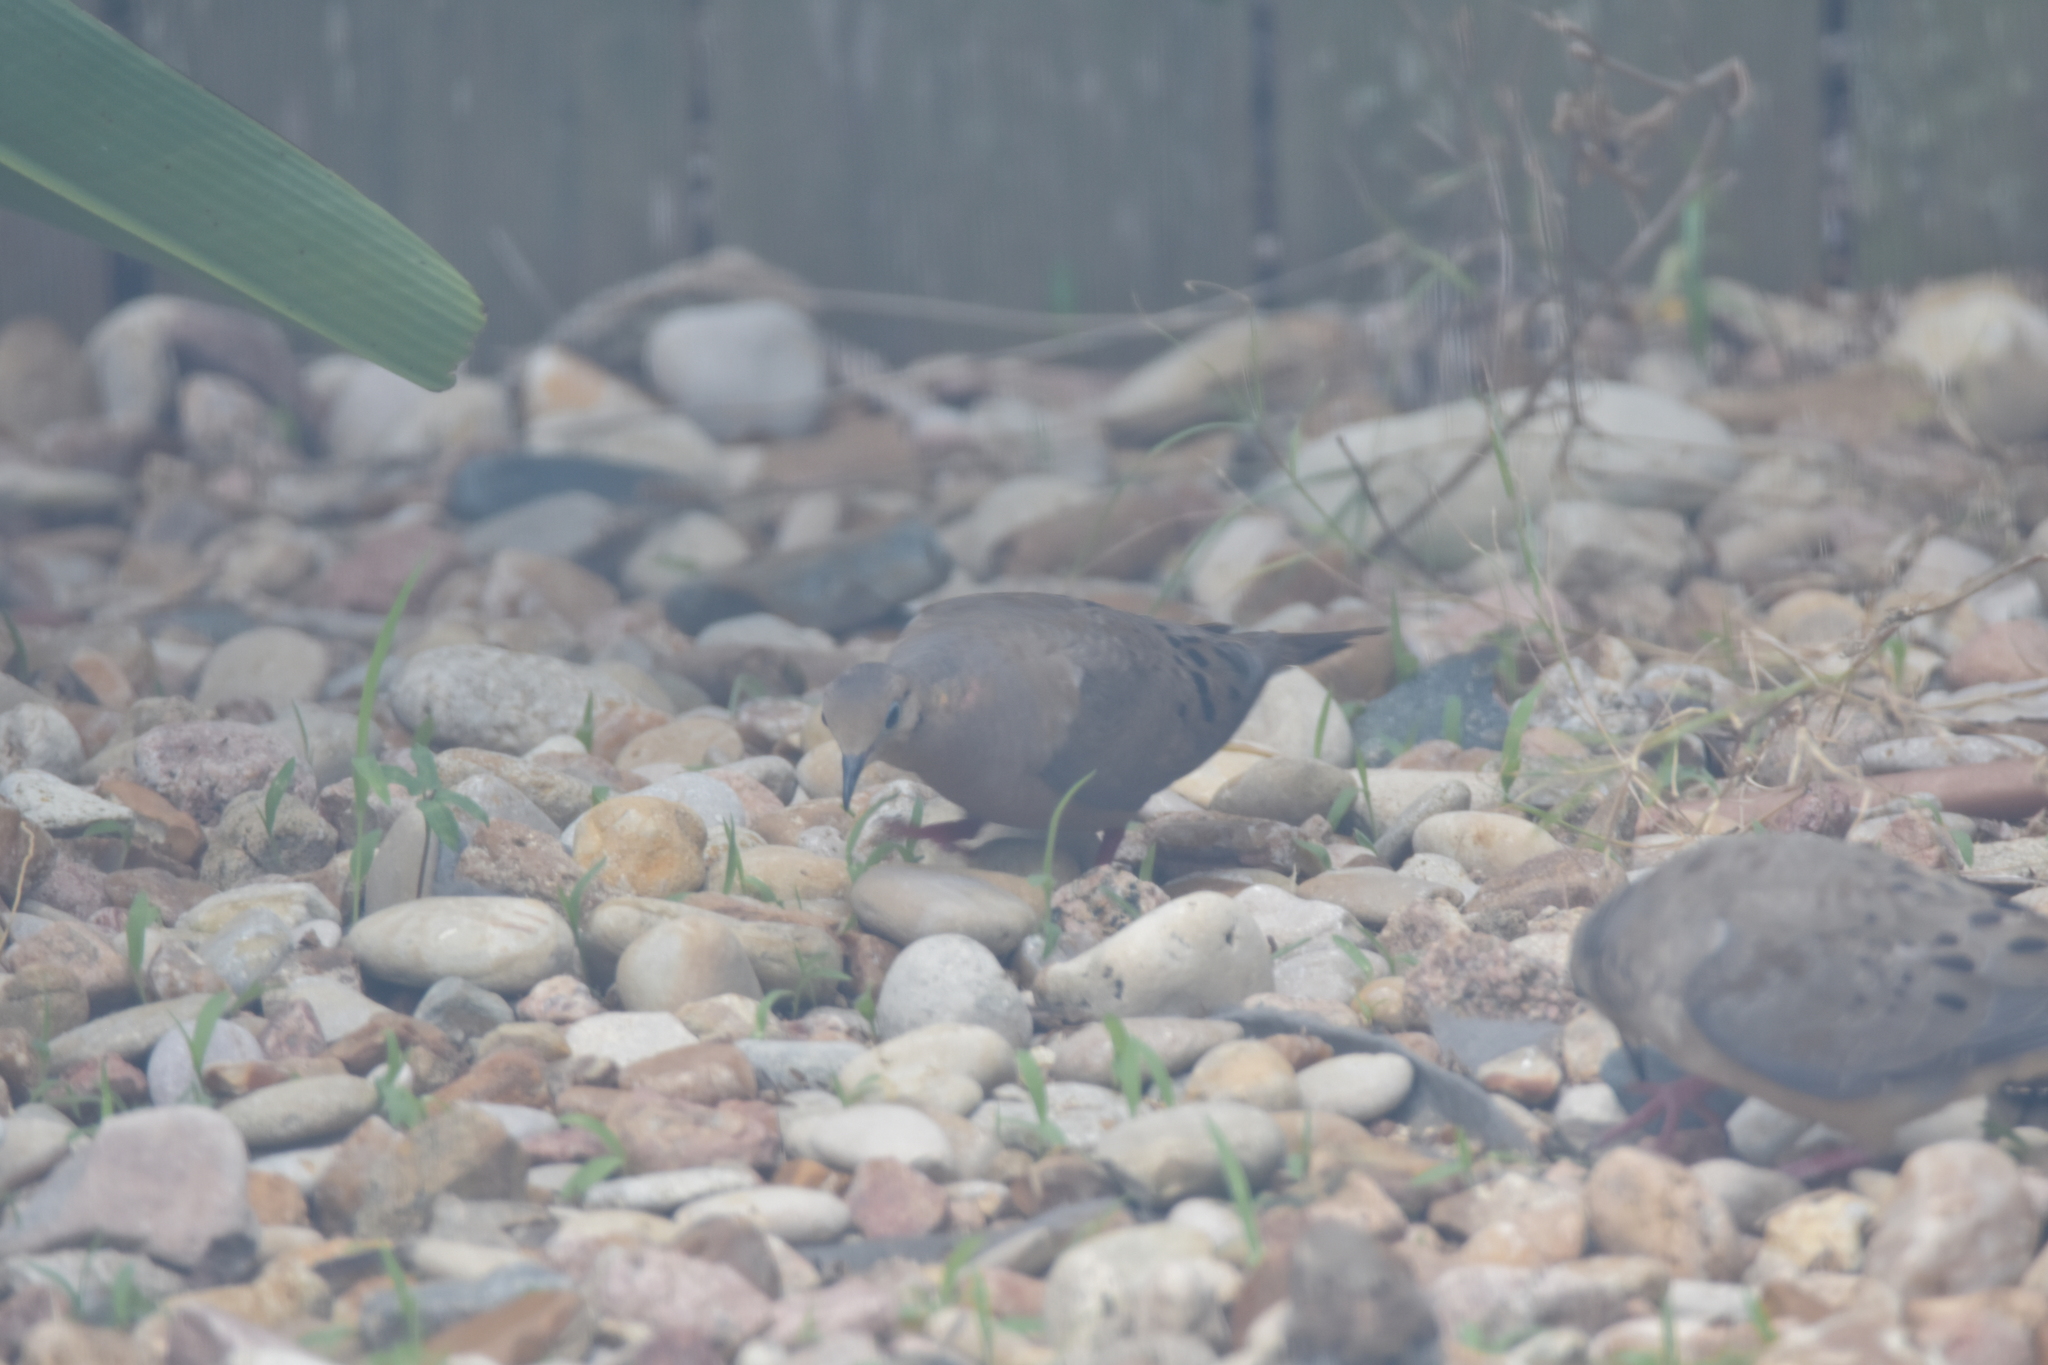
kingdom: Animalia
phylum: Chordata
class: Aves
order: Columbiformes
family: Columbidae
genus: Zenaida
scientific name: Zenaida macroura
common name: Mourning dove
